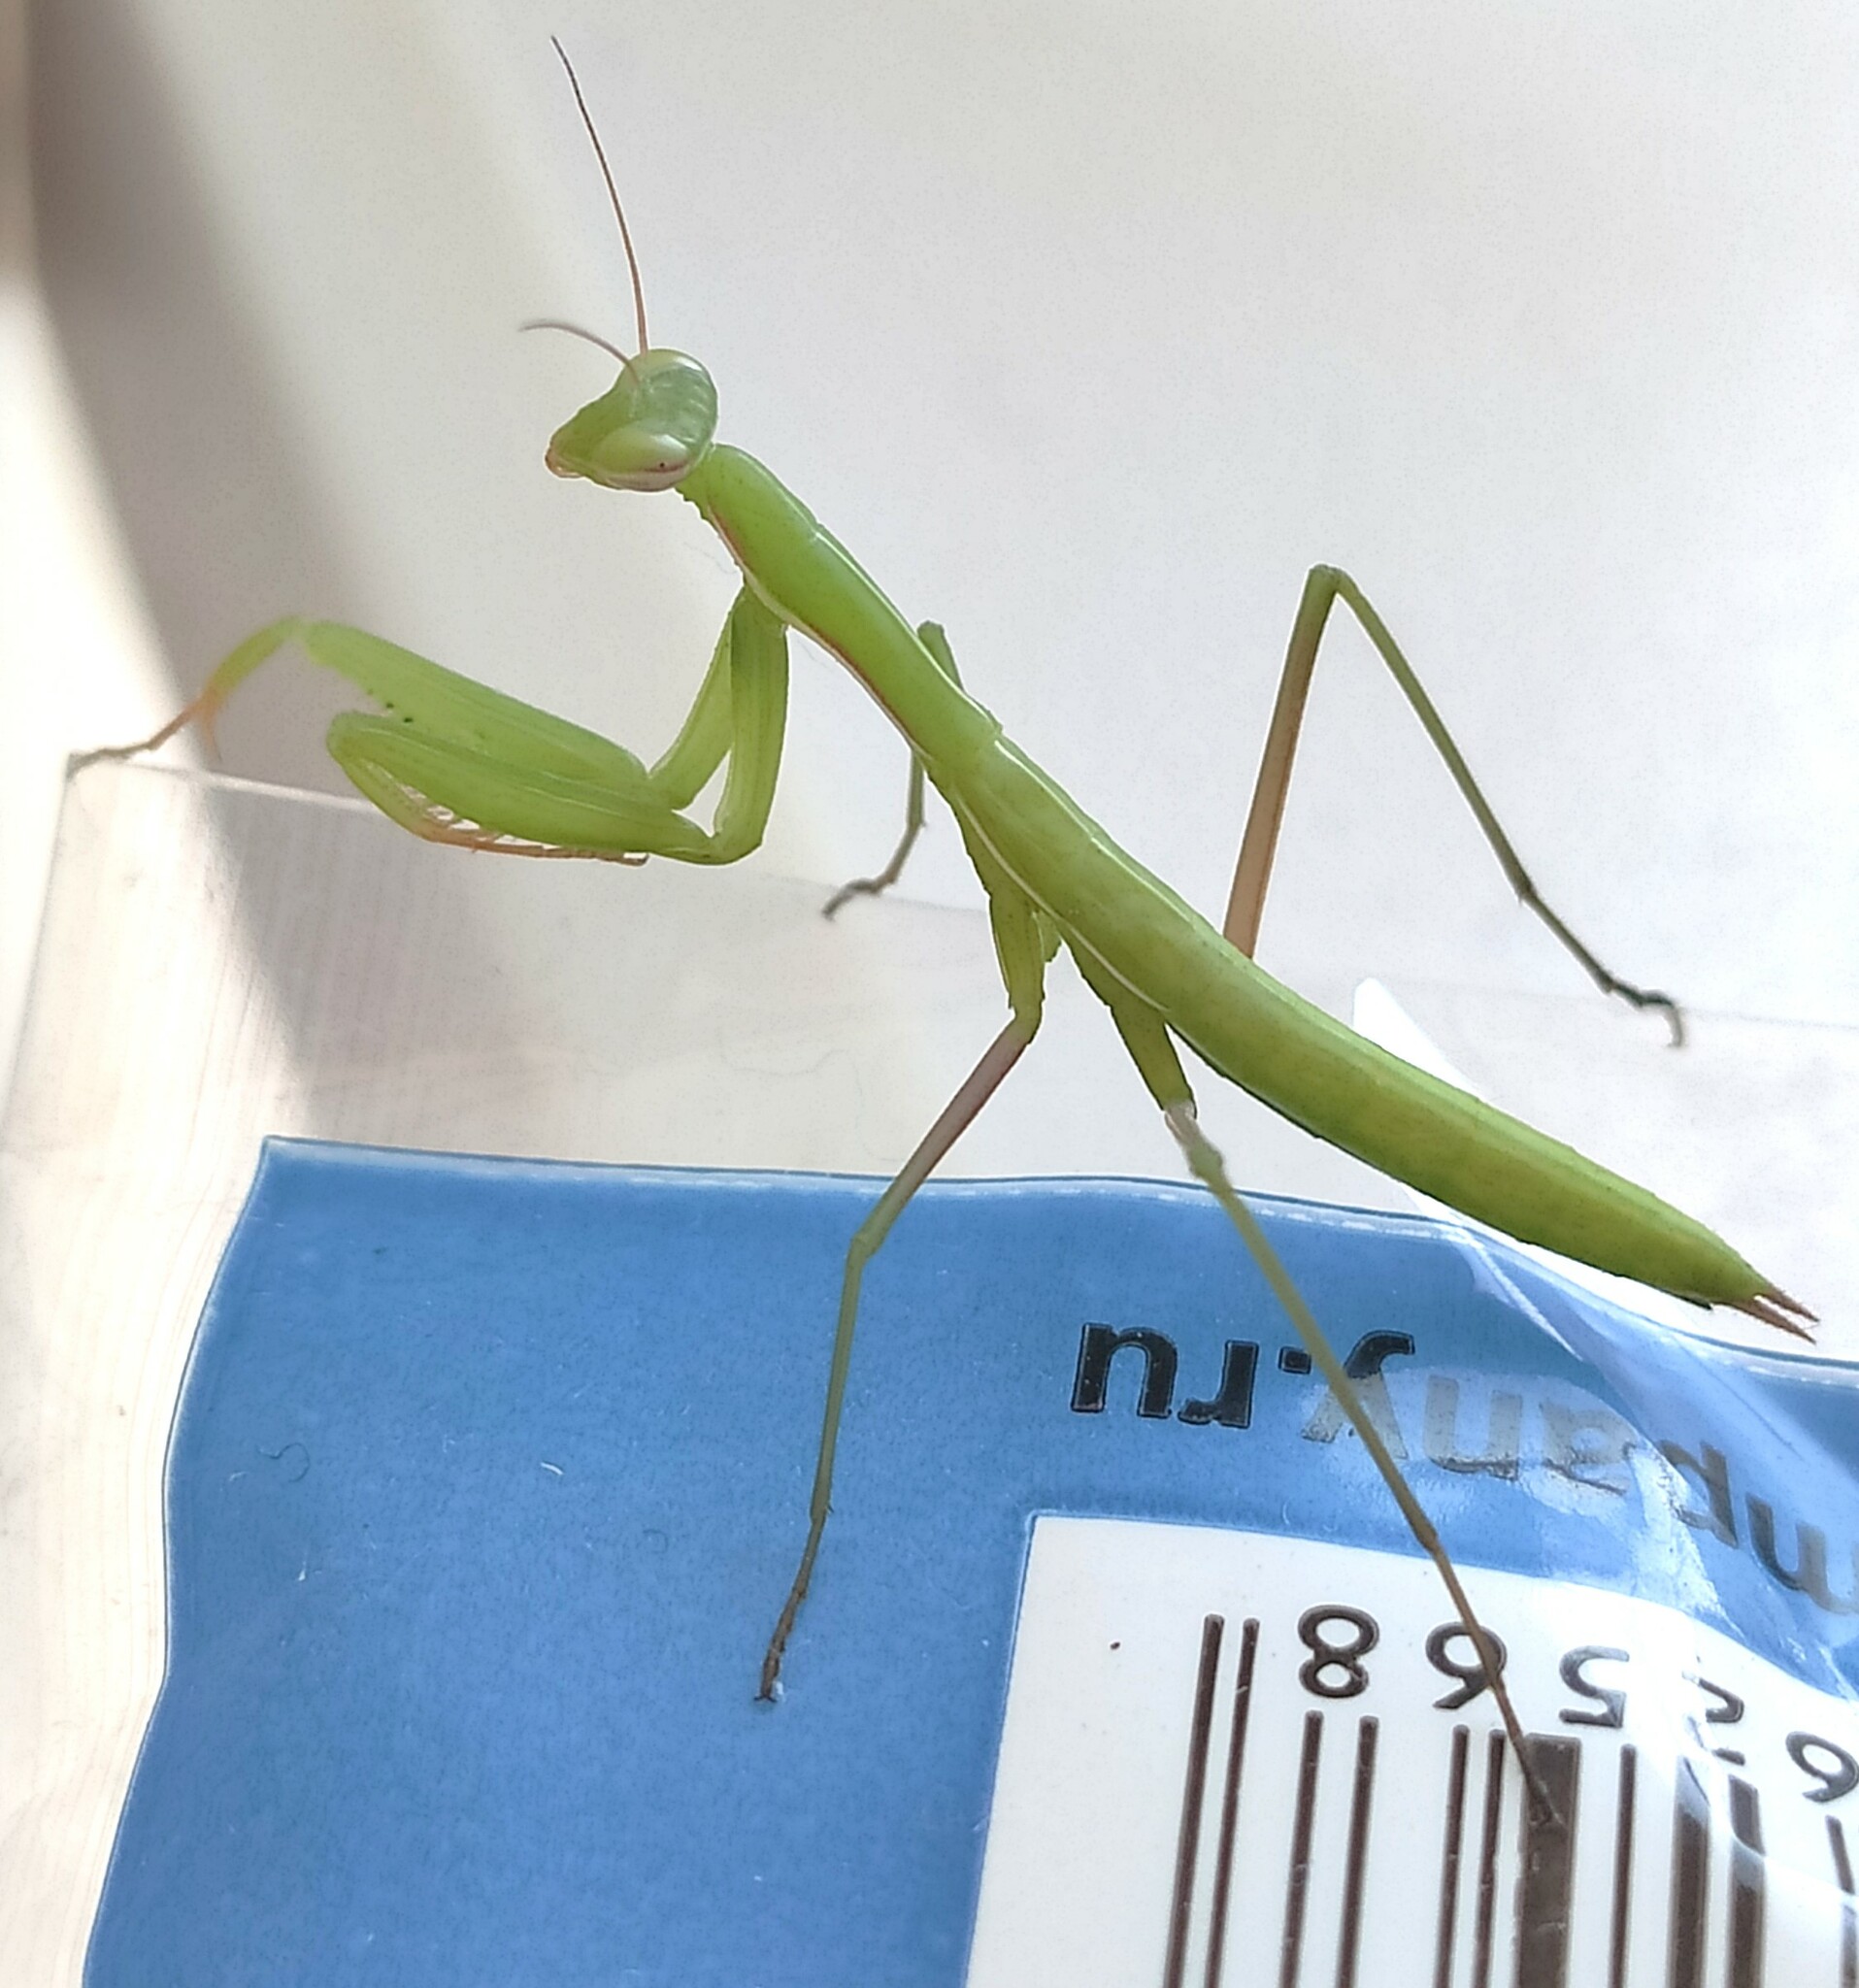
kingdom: Animalia
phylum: Arthropoda
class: Insecta
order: Mantodea
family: Mantidae
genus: Mantis
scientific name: Mantis religiosa
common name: Praying mantis
